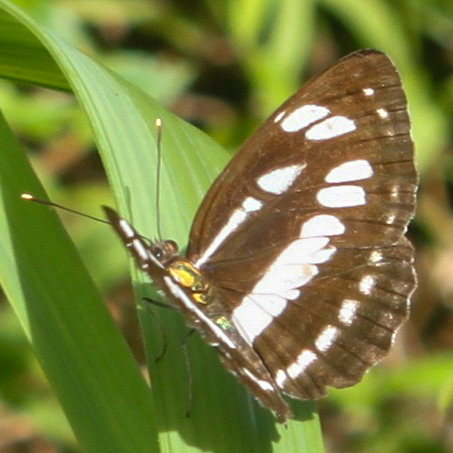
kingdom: Animalia
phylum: Arthropoda
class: Insecta
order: Lepidoptera
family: Nymphalidae
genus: Neptis
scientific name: Neptis hylas
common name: Common sailer
